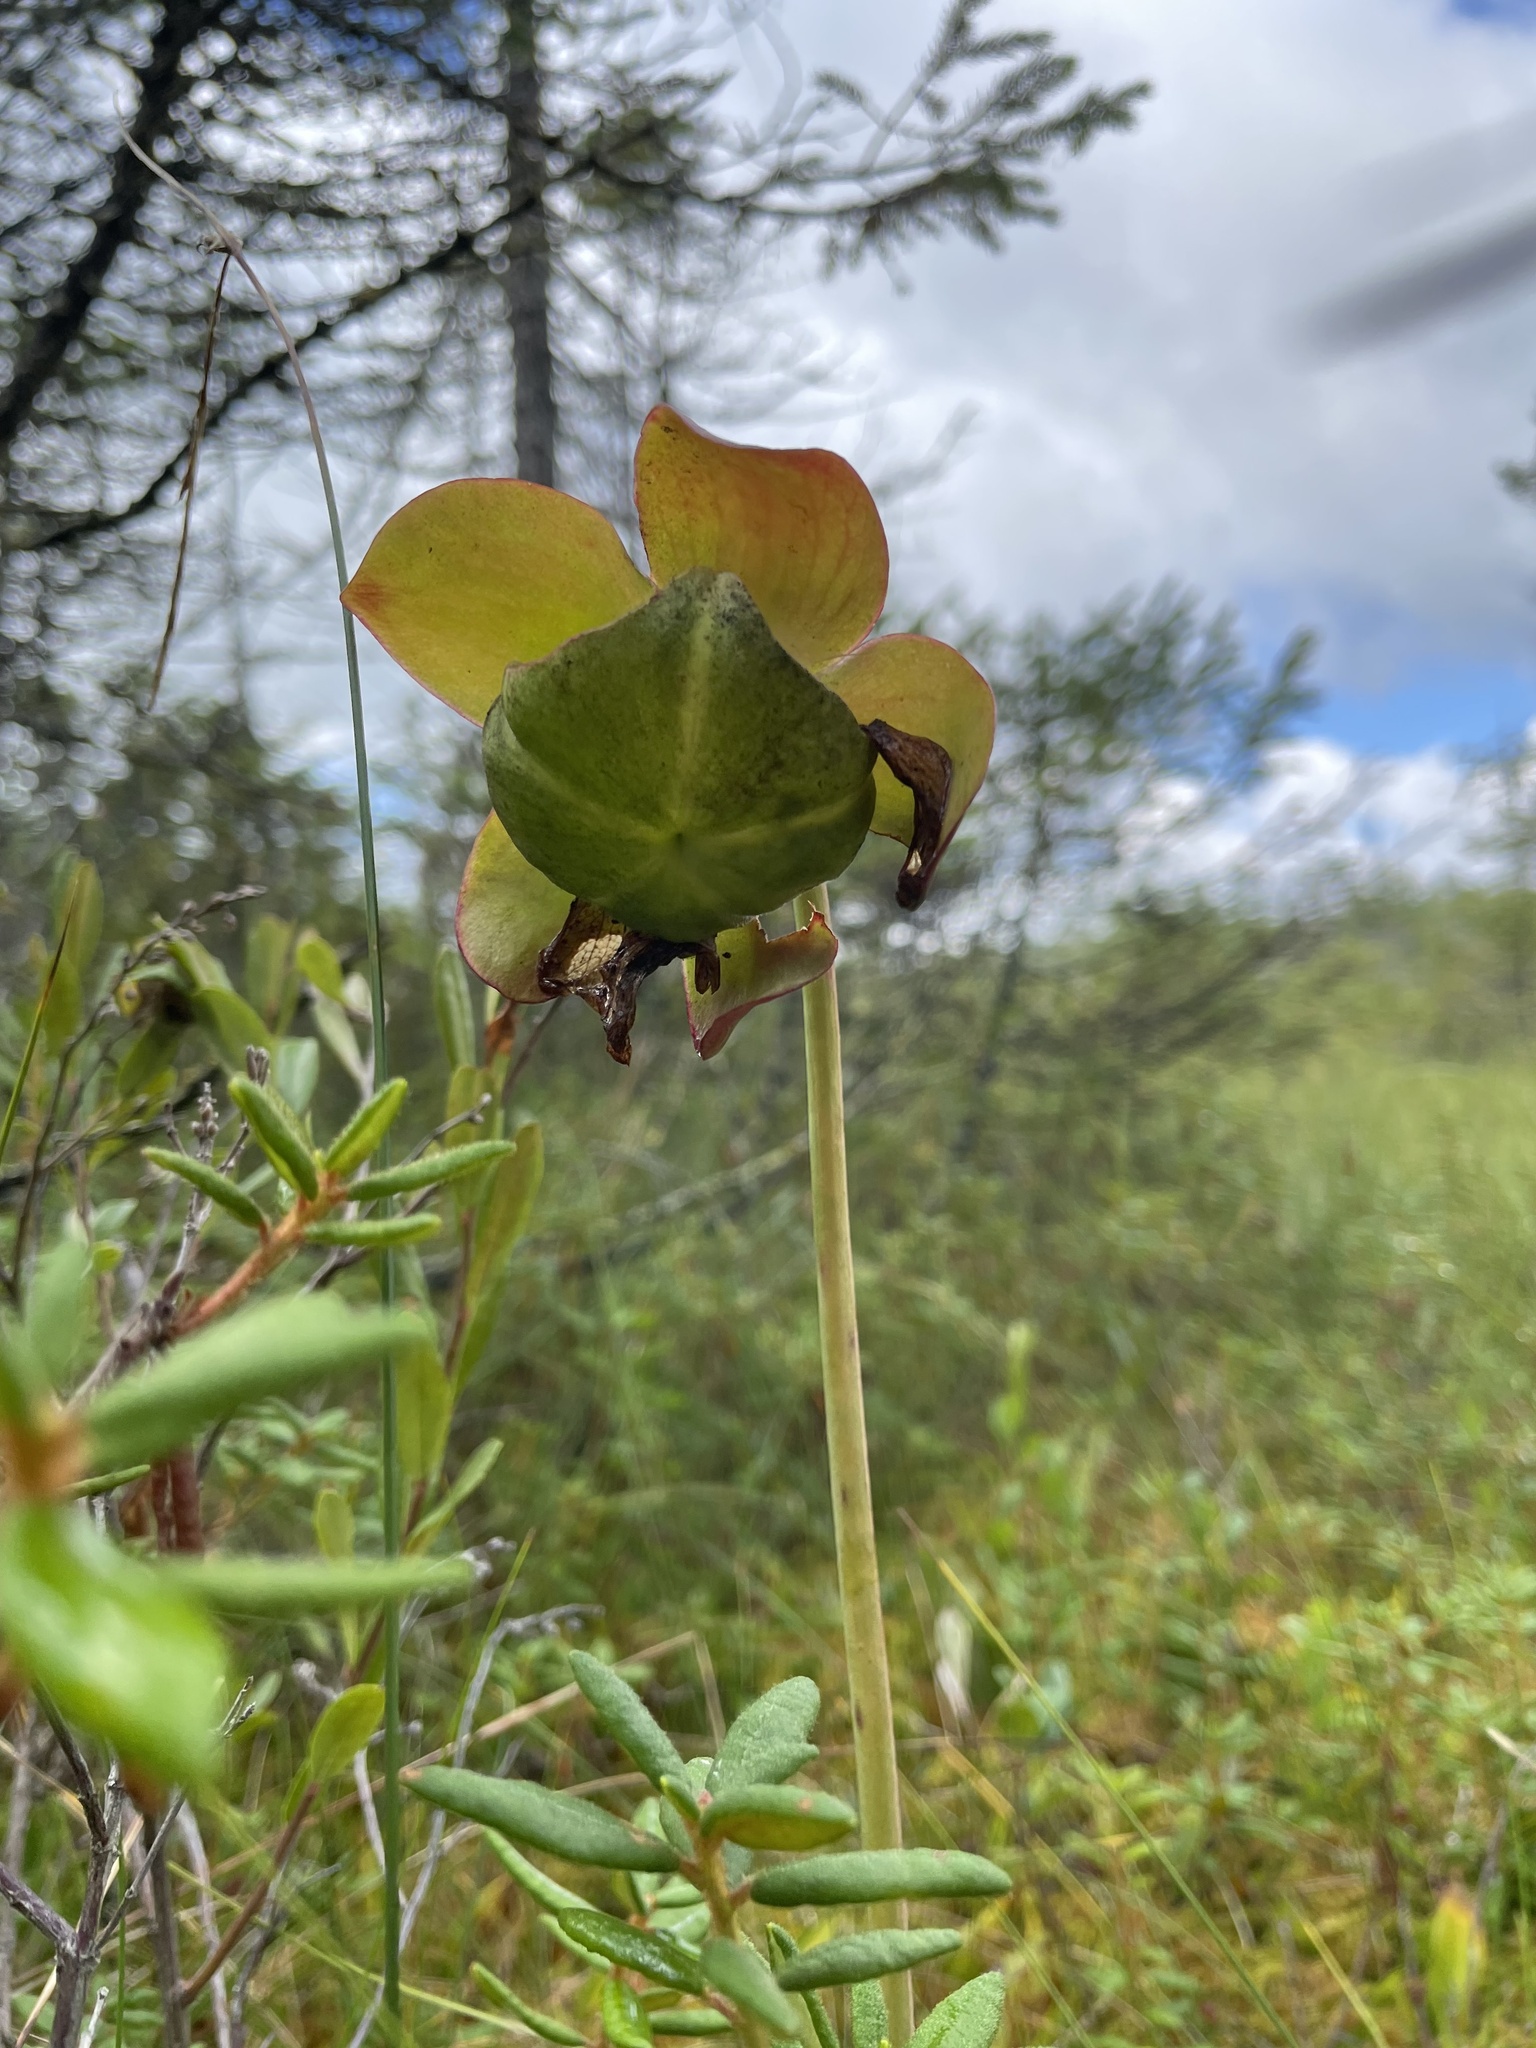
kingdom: Plantae
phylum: Tracheophyta
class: Magnoliopsida
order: Ericales
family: Sarraceniaceae
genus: Sarracenia
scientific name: Sarracenia purpurea
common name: Pitcherplant
